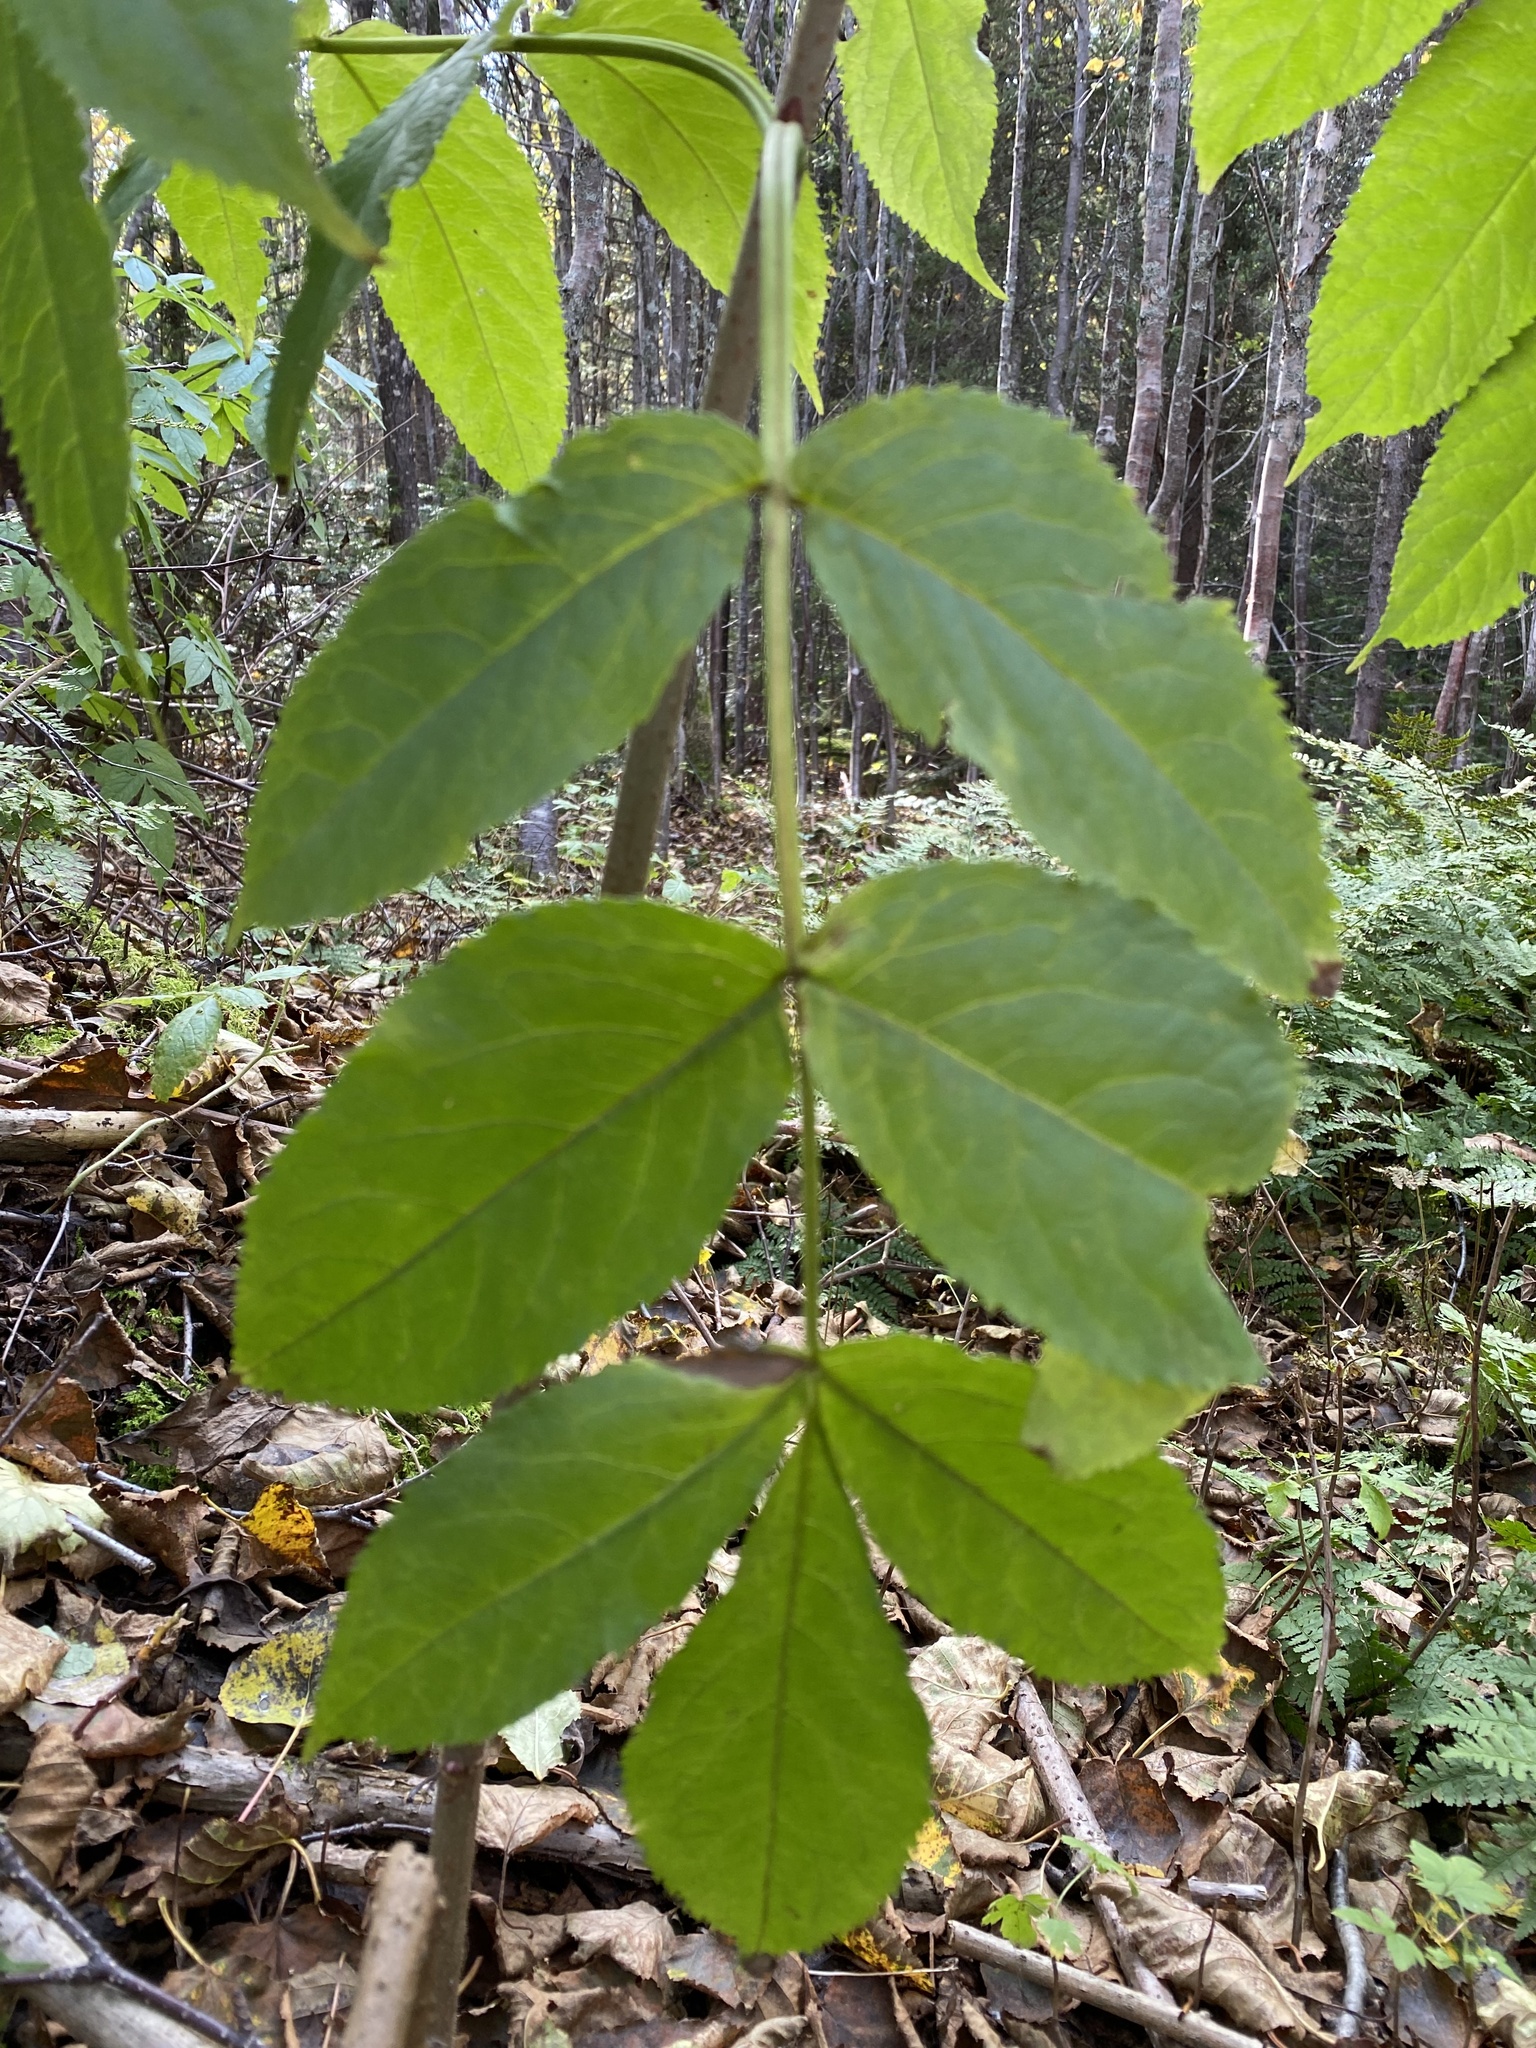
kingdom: Plantae
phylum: Tracheophyta
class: Magnoliopsida
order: Dipsacales
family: Viburnaceae
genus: Sambucus
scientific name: Sambucus racemosa
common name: Red-berried elder
